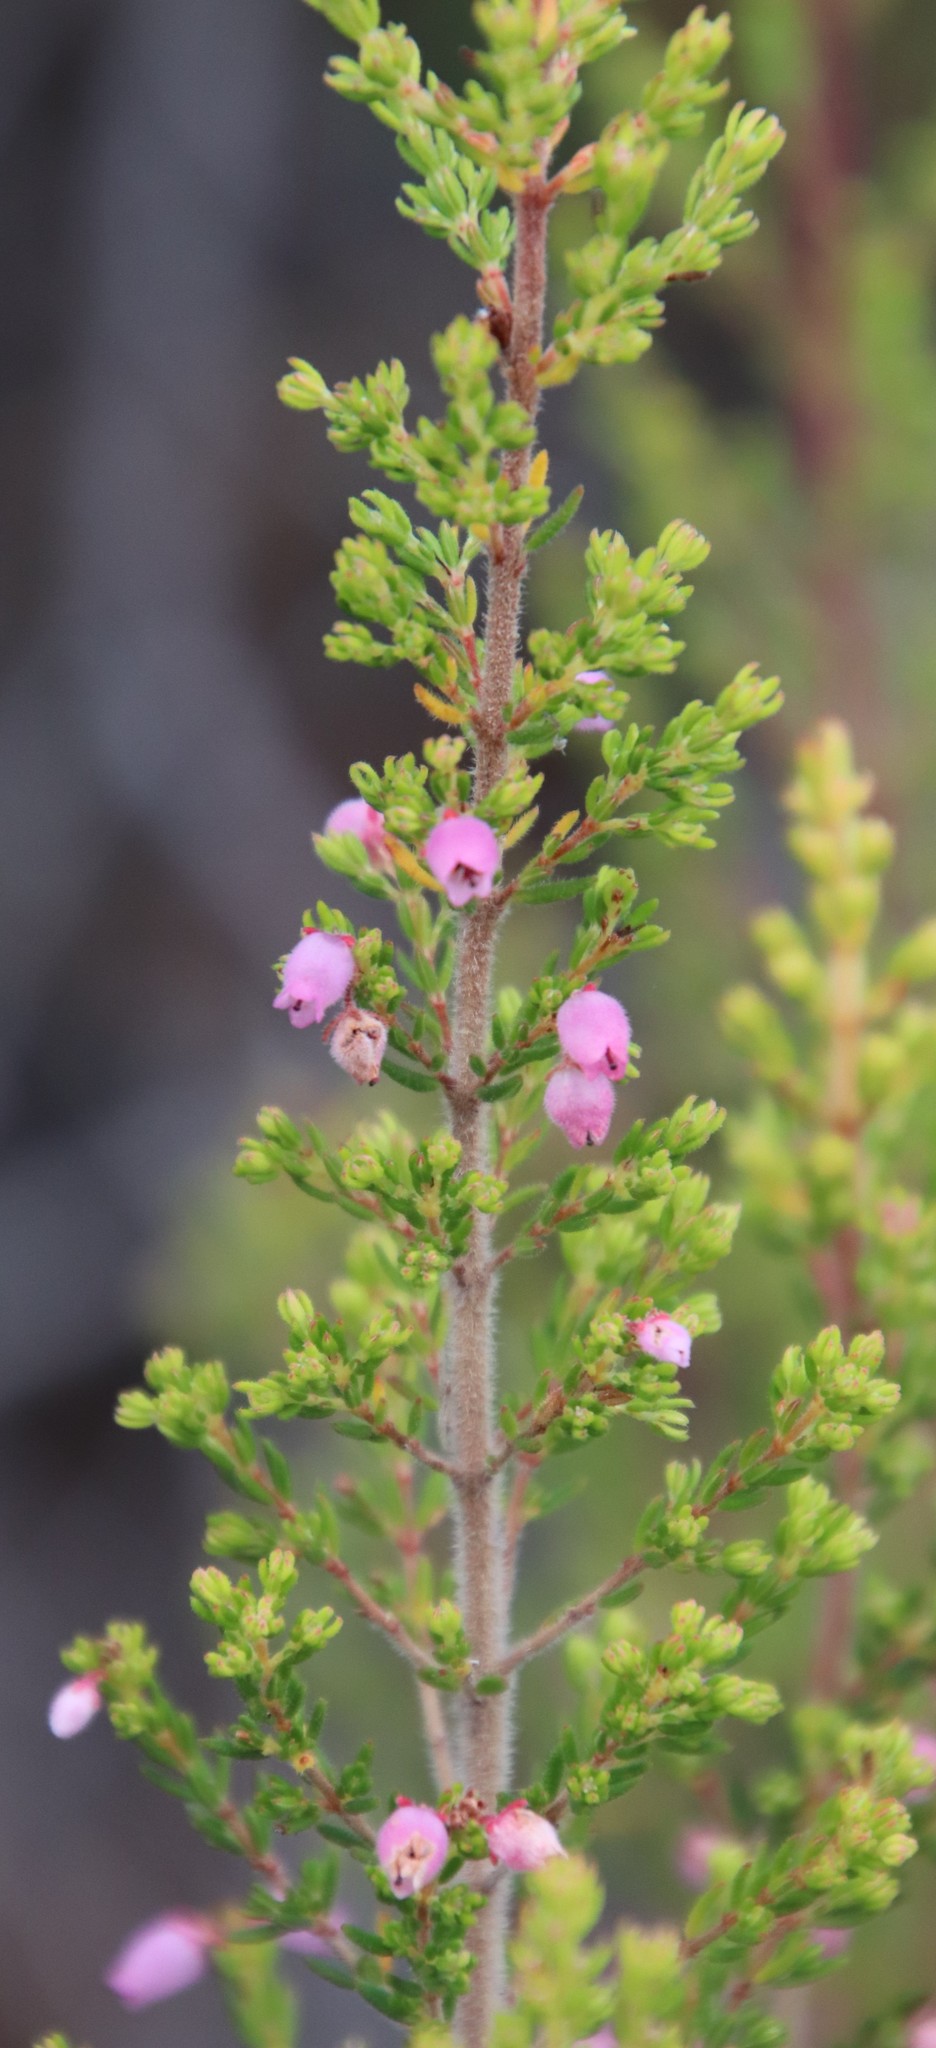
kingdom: Plantae
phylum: Tracheophyta
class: Magnoliopsida
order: Ericales
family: Ericaceae
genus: Erica
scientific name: Erica hirtiflora
